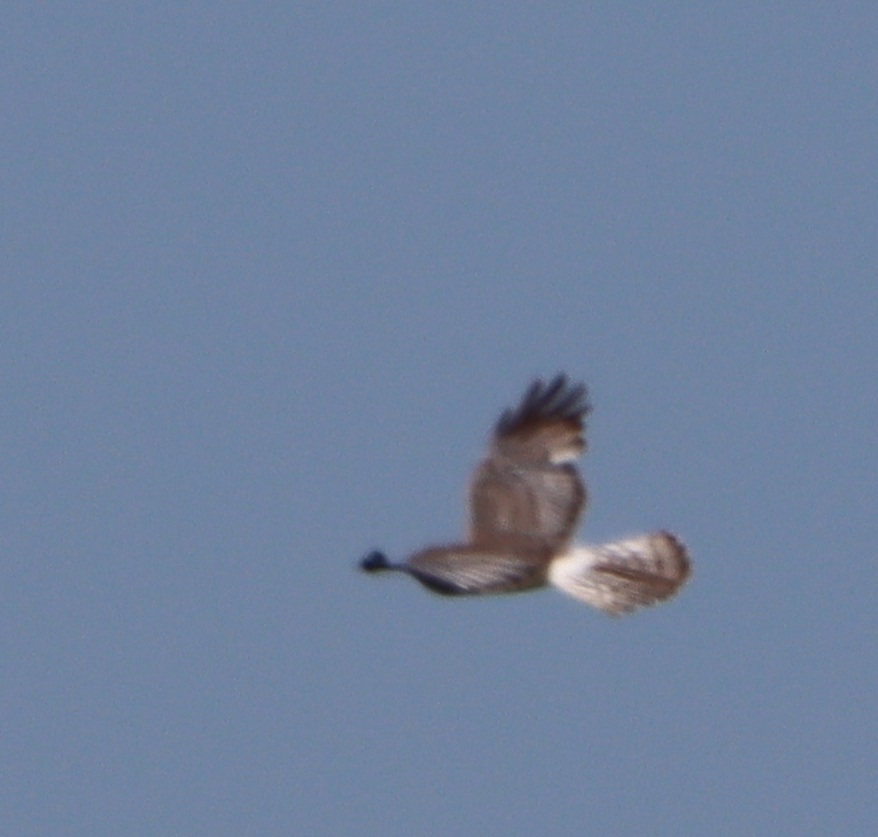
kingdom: Animalia
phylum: Chordata
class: Aves
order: Accipitriformes
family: Accipitridae
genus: Circus
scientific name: Circus cyaneus
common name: Hen harrier
